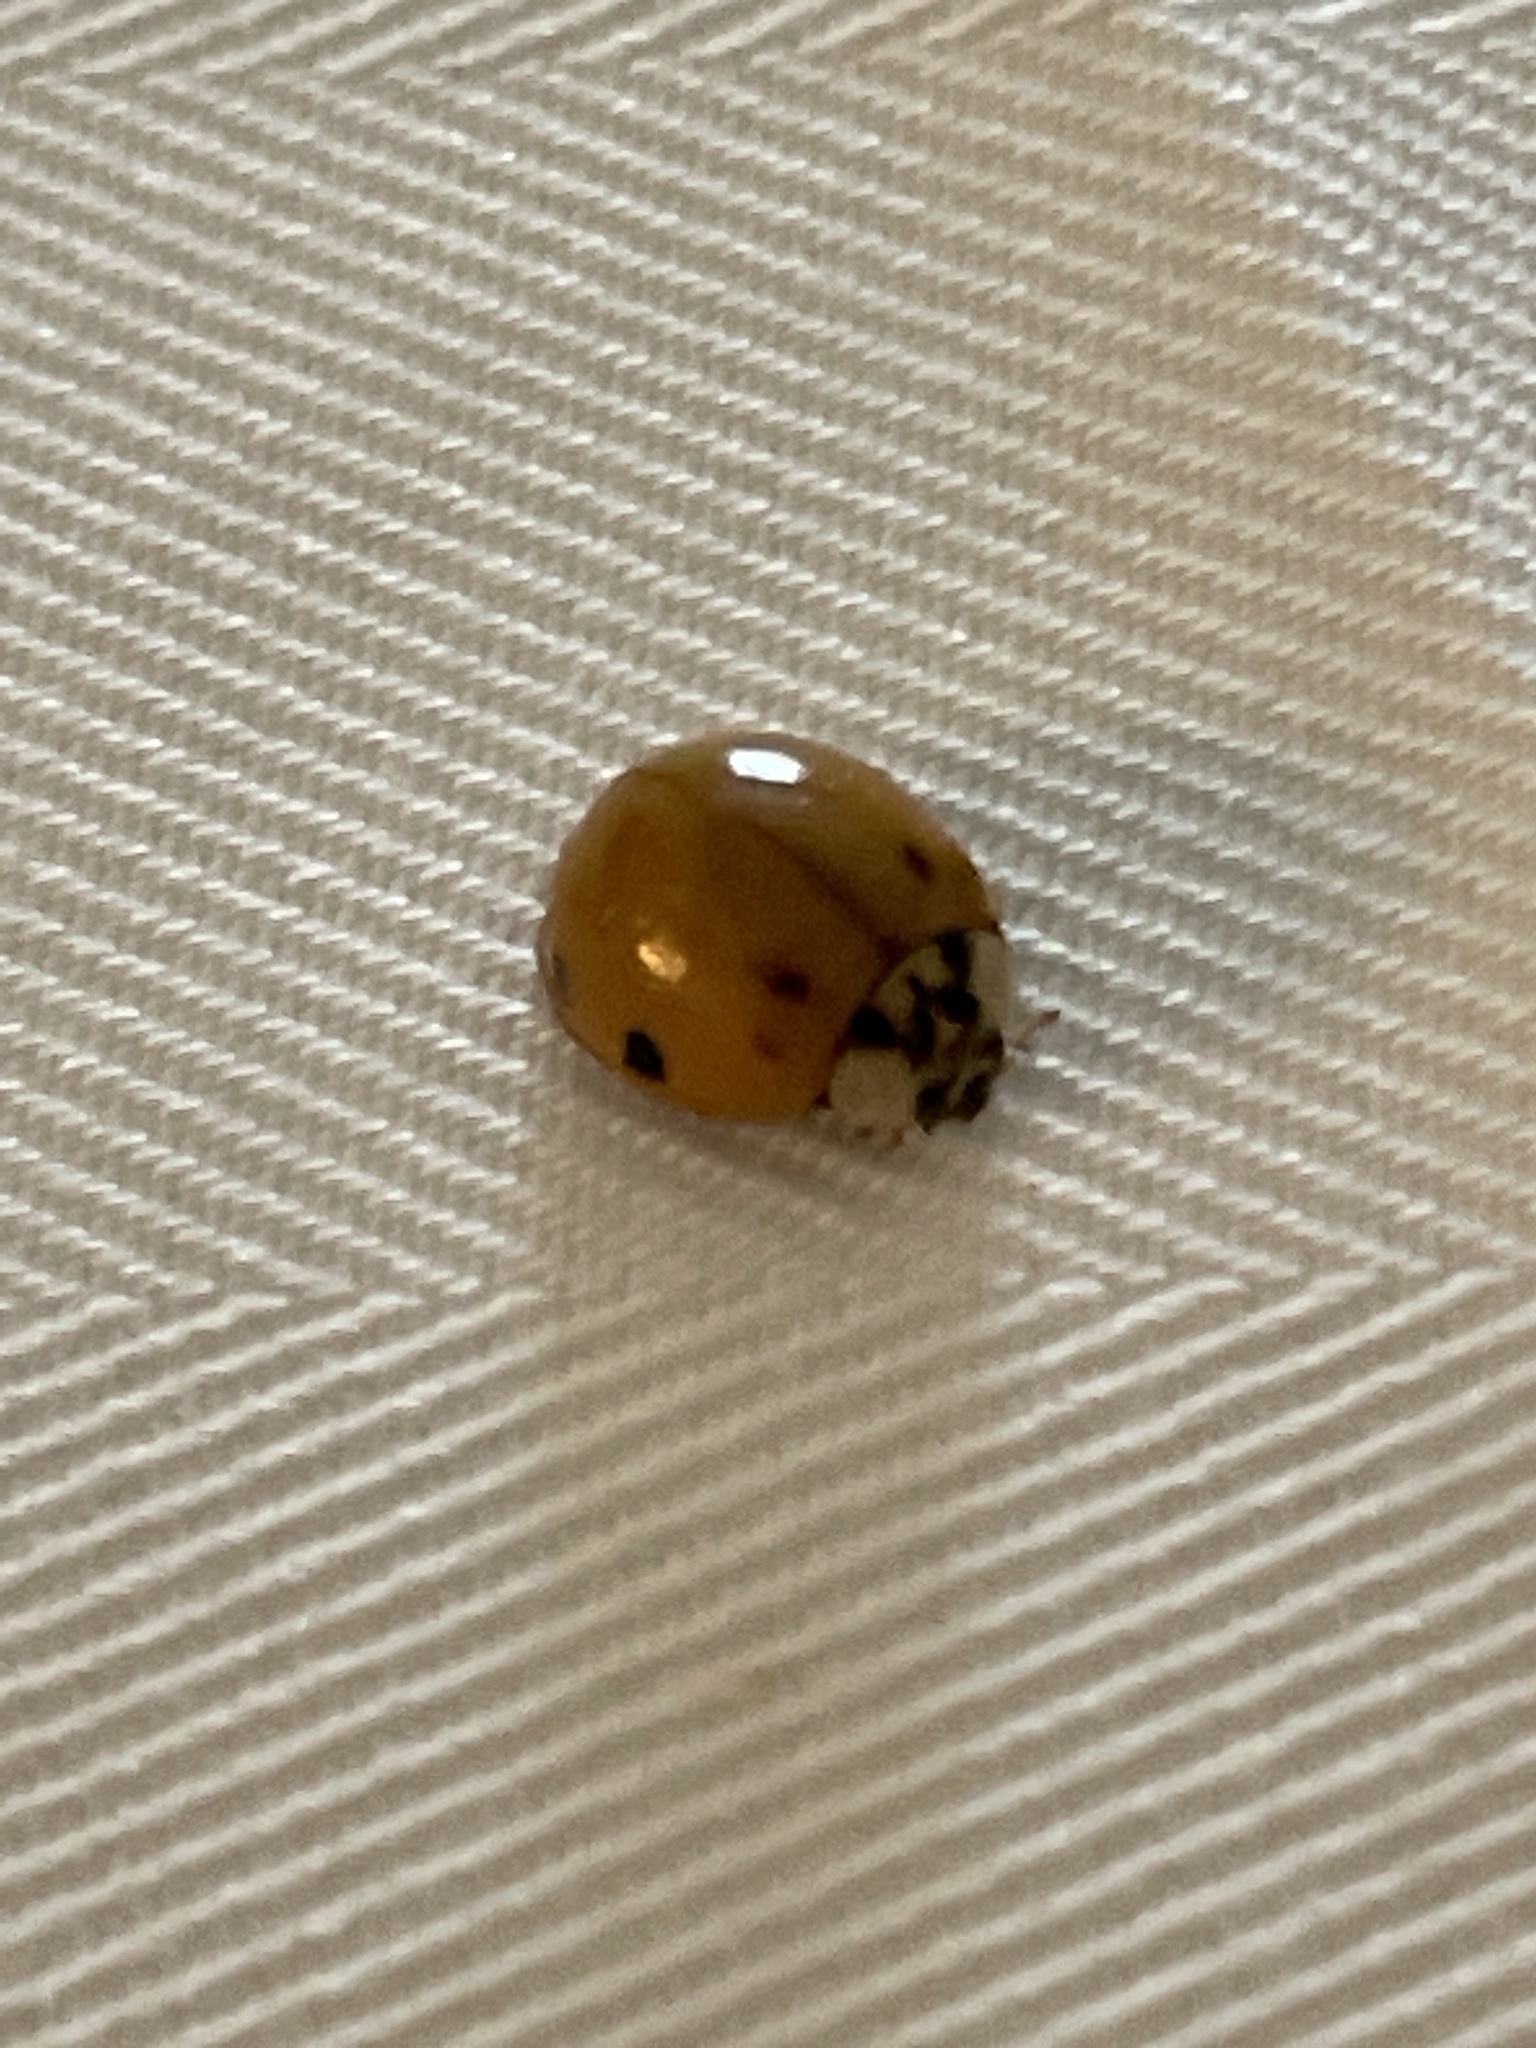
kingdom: Animalia
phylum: Arthropoda
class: Insecta
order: Coleoptera
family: Coccinellidae
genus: Harmonia
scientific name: Harmonia axyridis
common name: Harlequin ladybird
